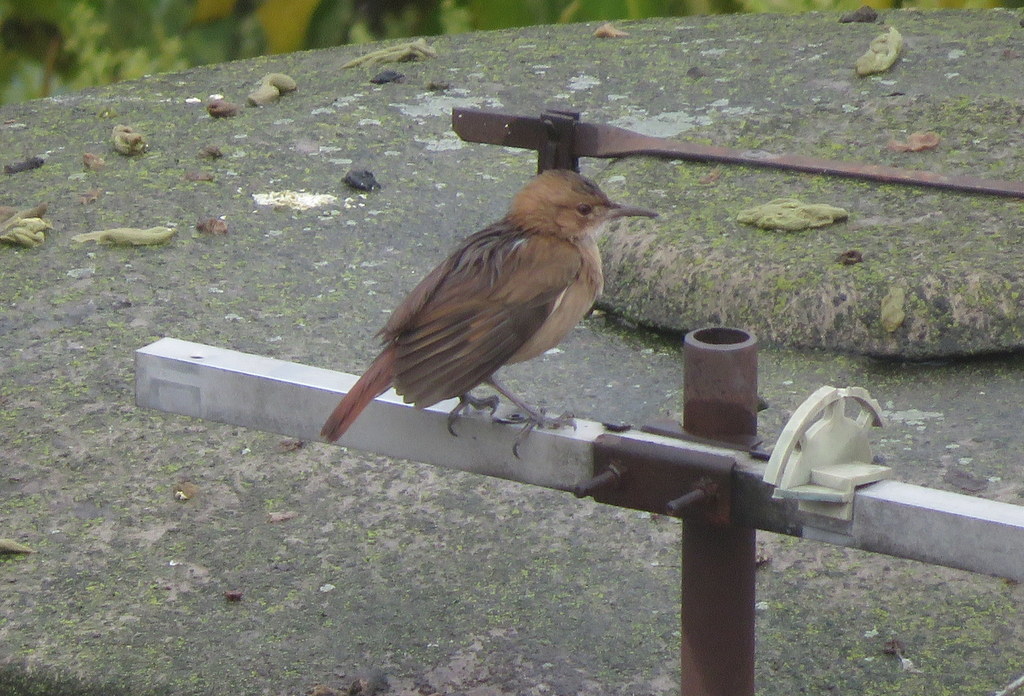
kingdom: Animalia
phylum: Chordata
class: Aves
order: Passeriformes
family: Furnariidae
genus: Furnarius
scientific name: Furnarius rufus
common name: Rufous hornero
